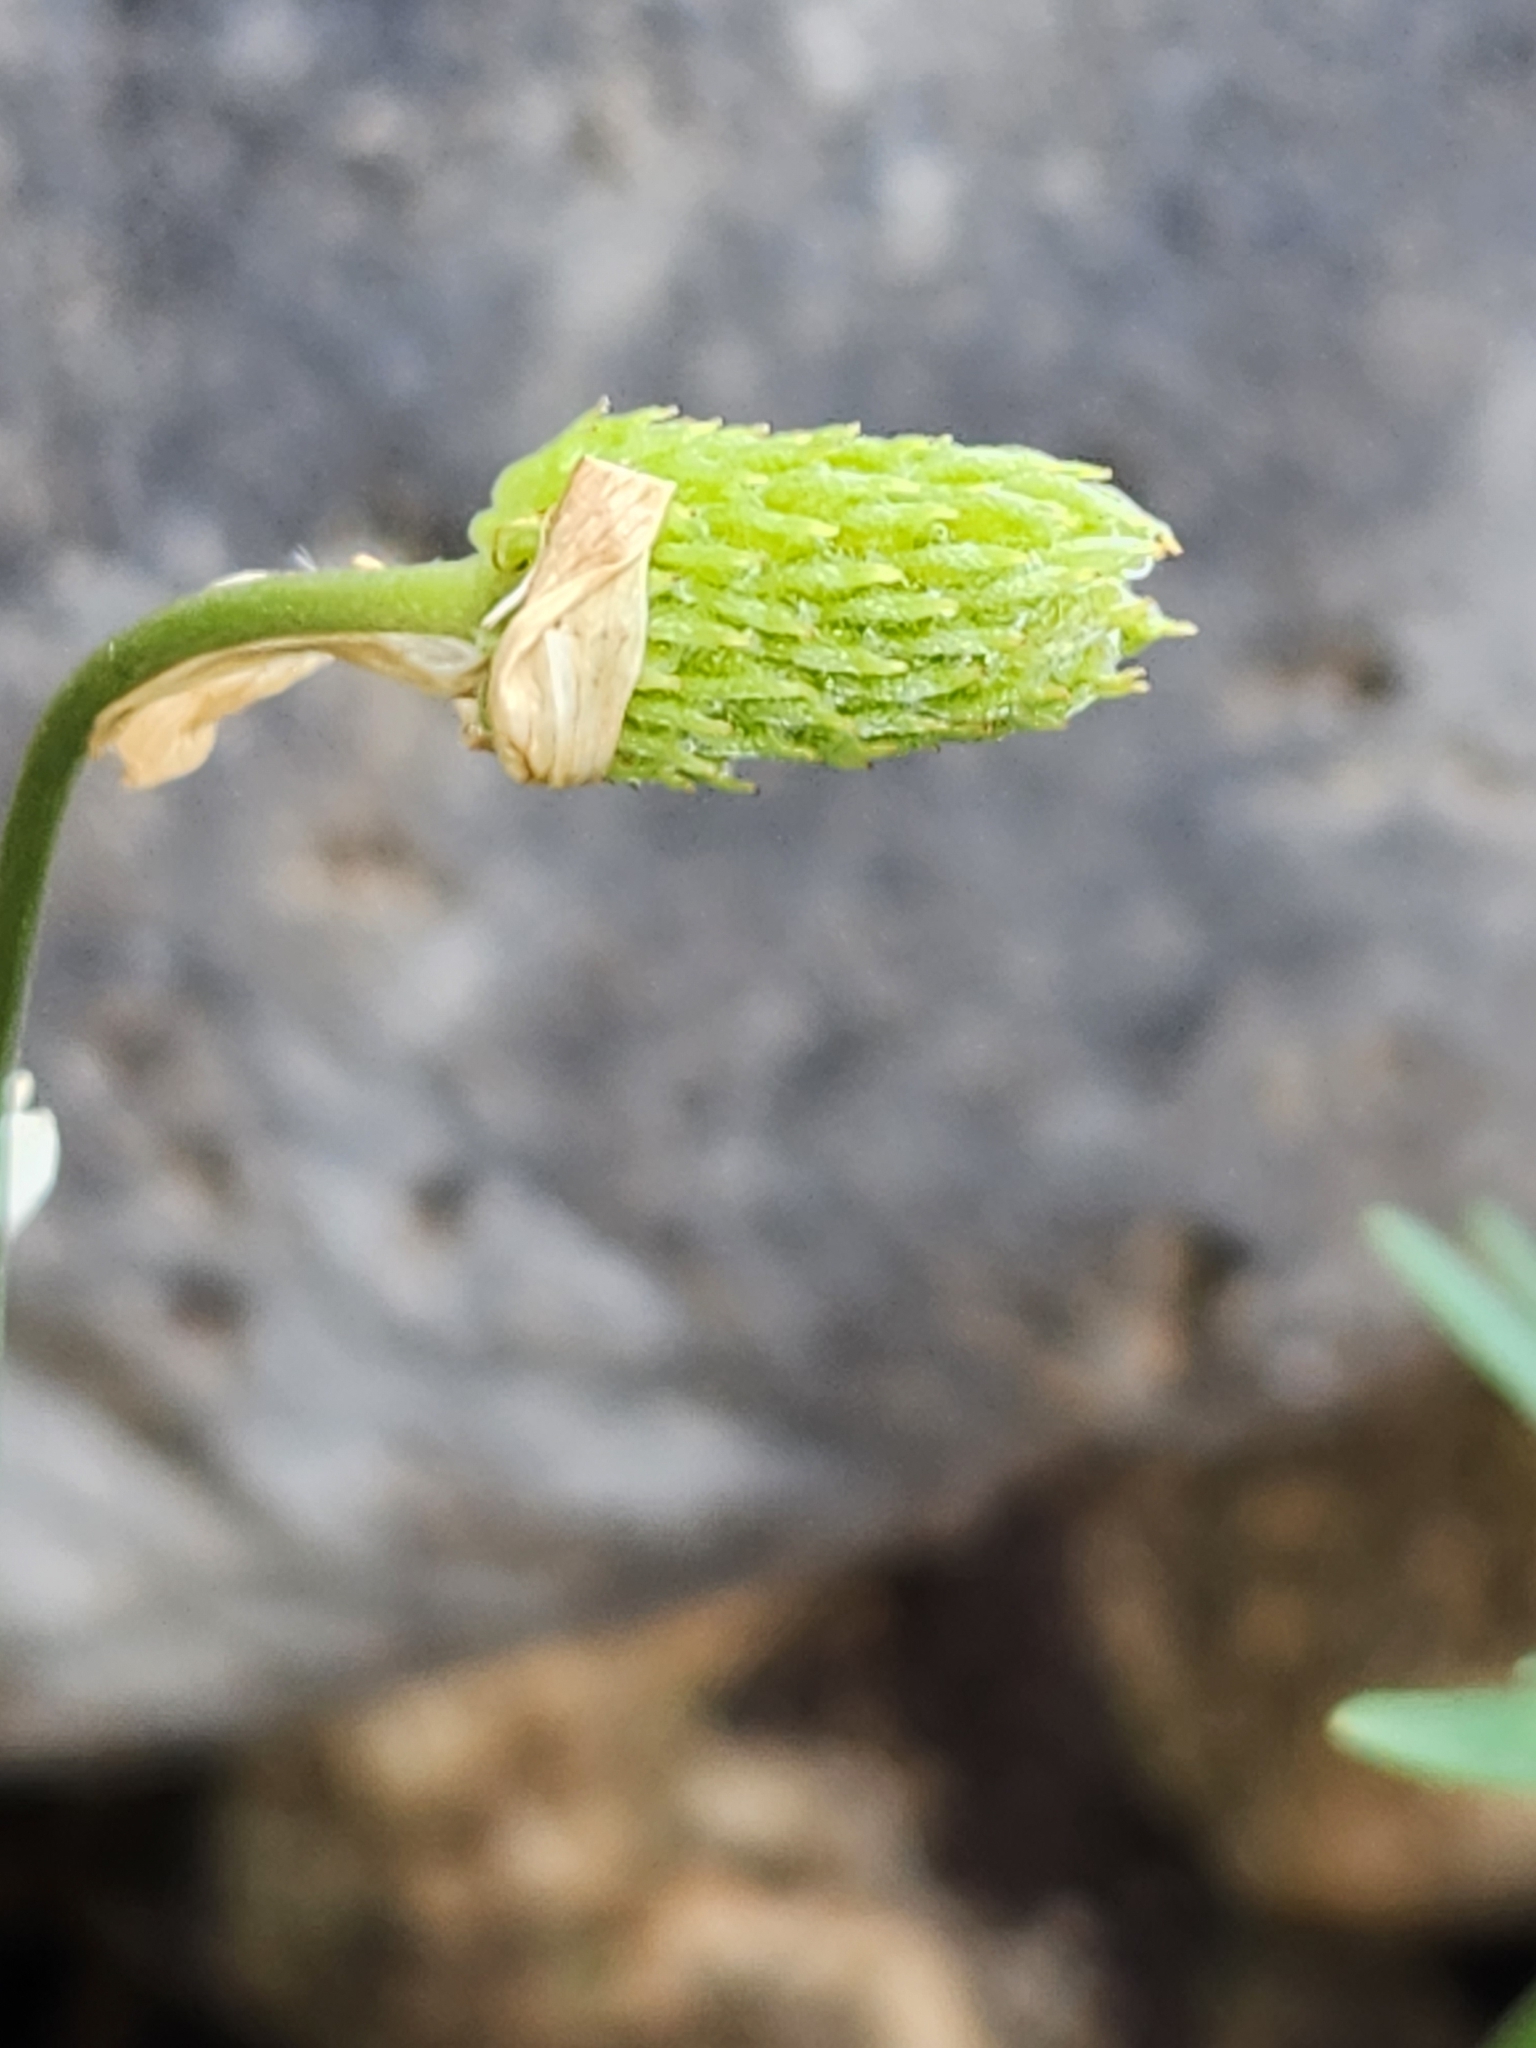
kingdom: Plantae
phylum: Tracheophyta
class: Magnoliopsida
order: Ranunculales
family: Ranunculaceae
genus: Anemone
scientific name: Anemone edwardsiana
